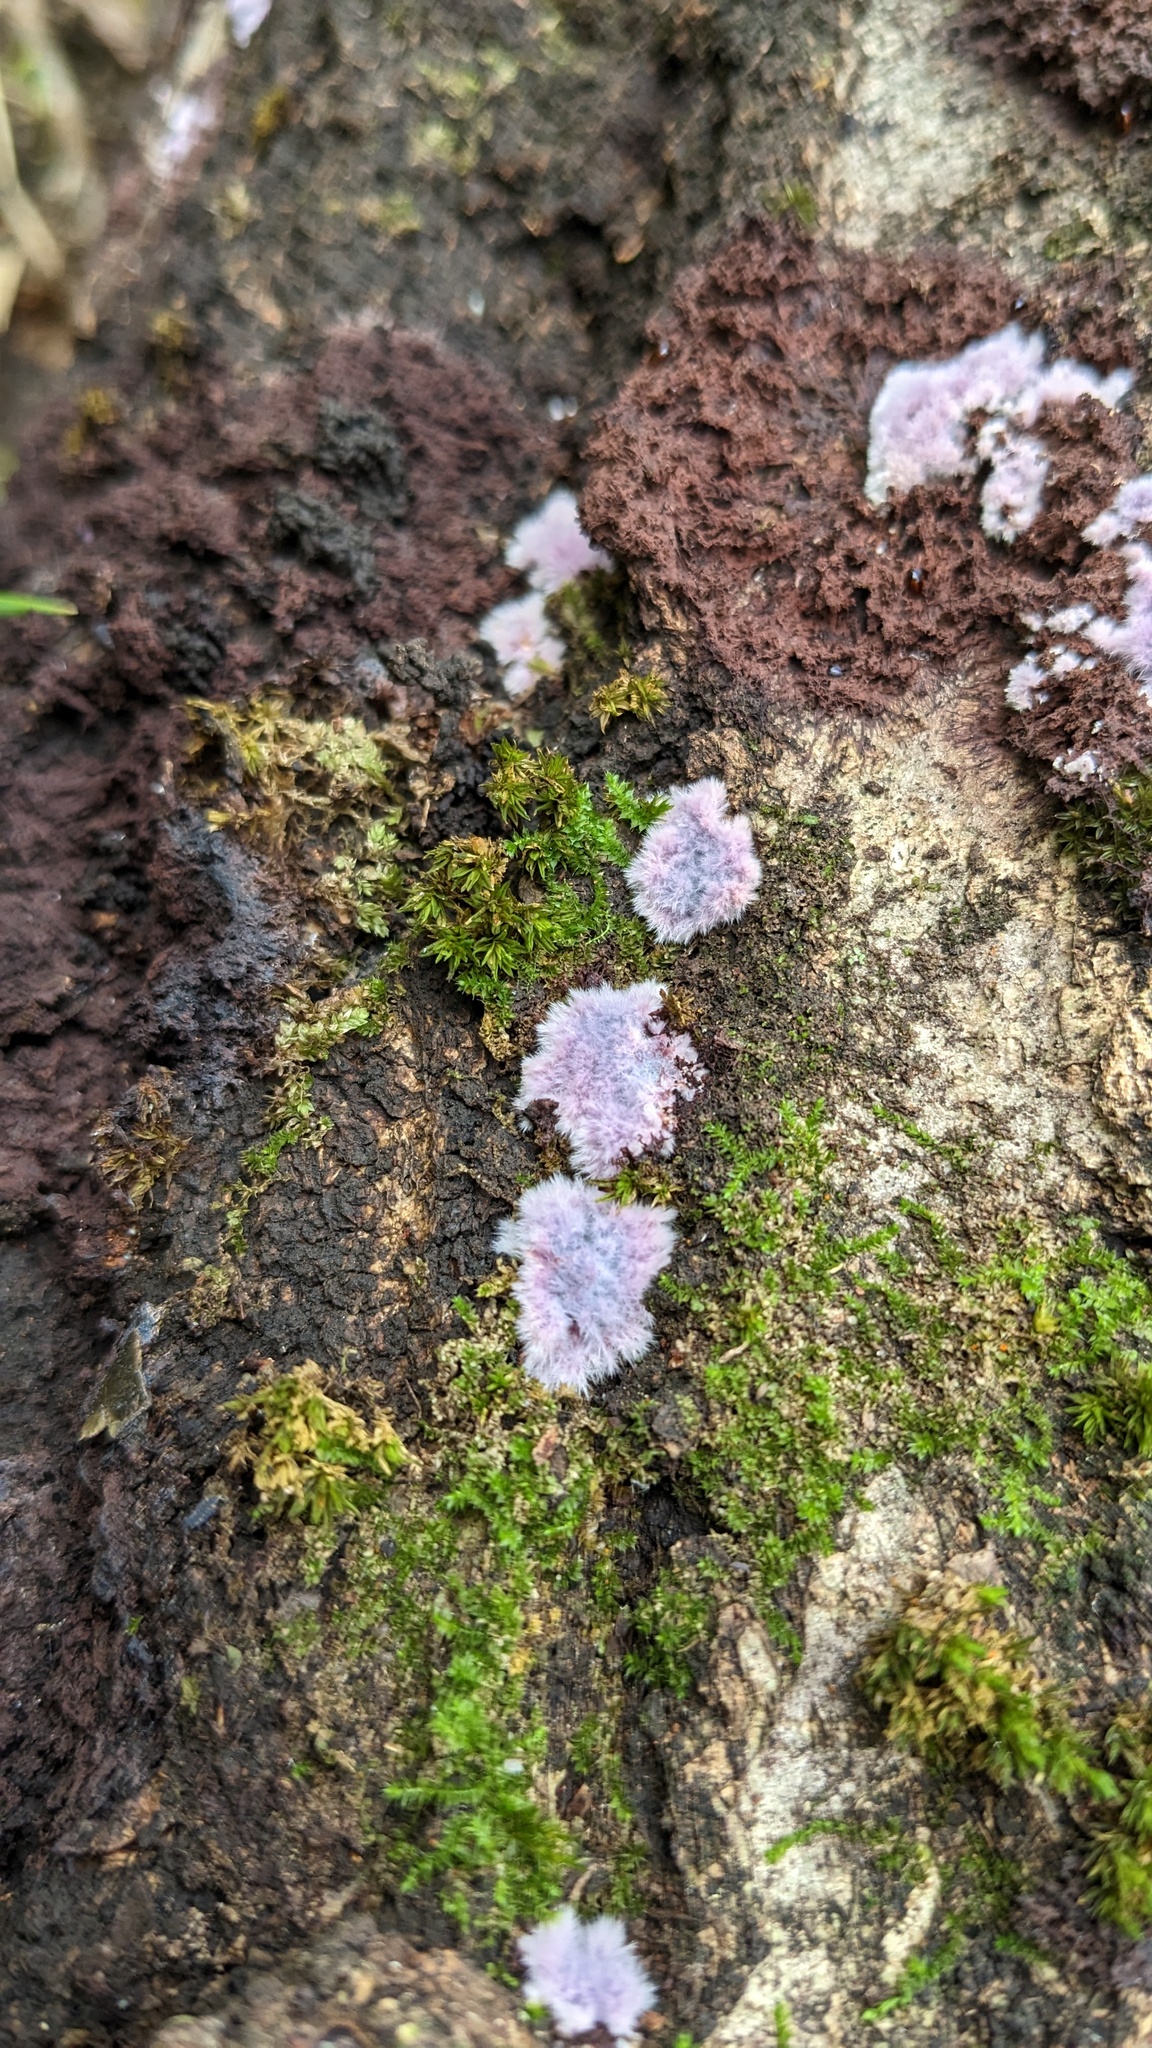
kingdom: Fungi
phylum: Basidiomycota
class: Agaricomycetes
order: Corticiales
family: Punctulariaceae
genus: Punctularia
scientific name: Punctularia atropurpurascens
